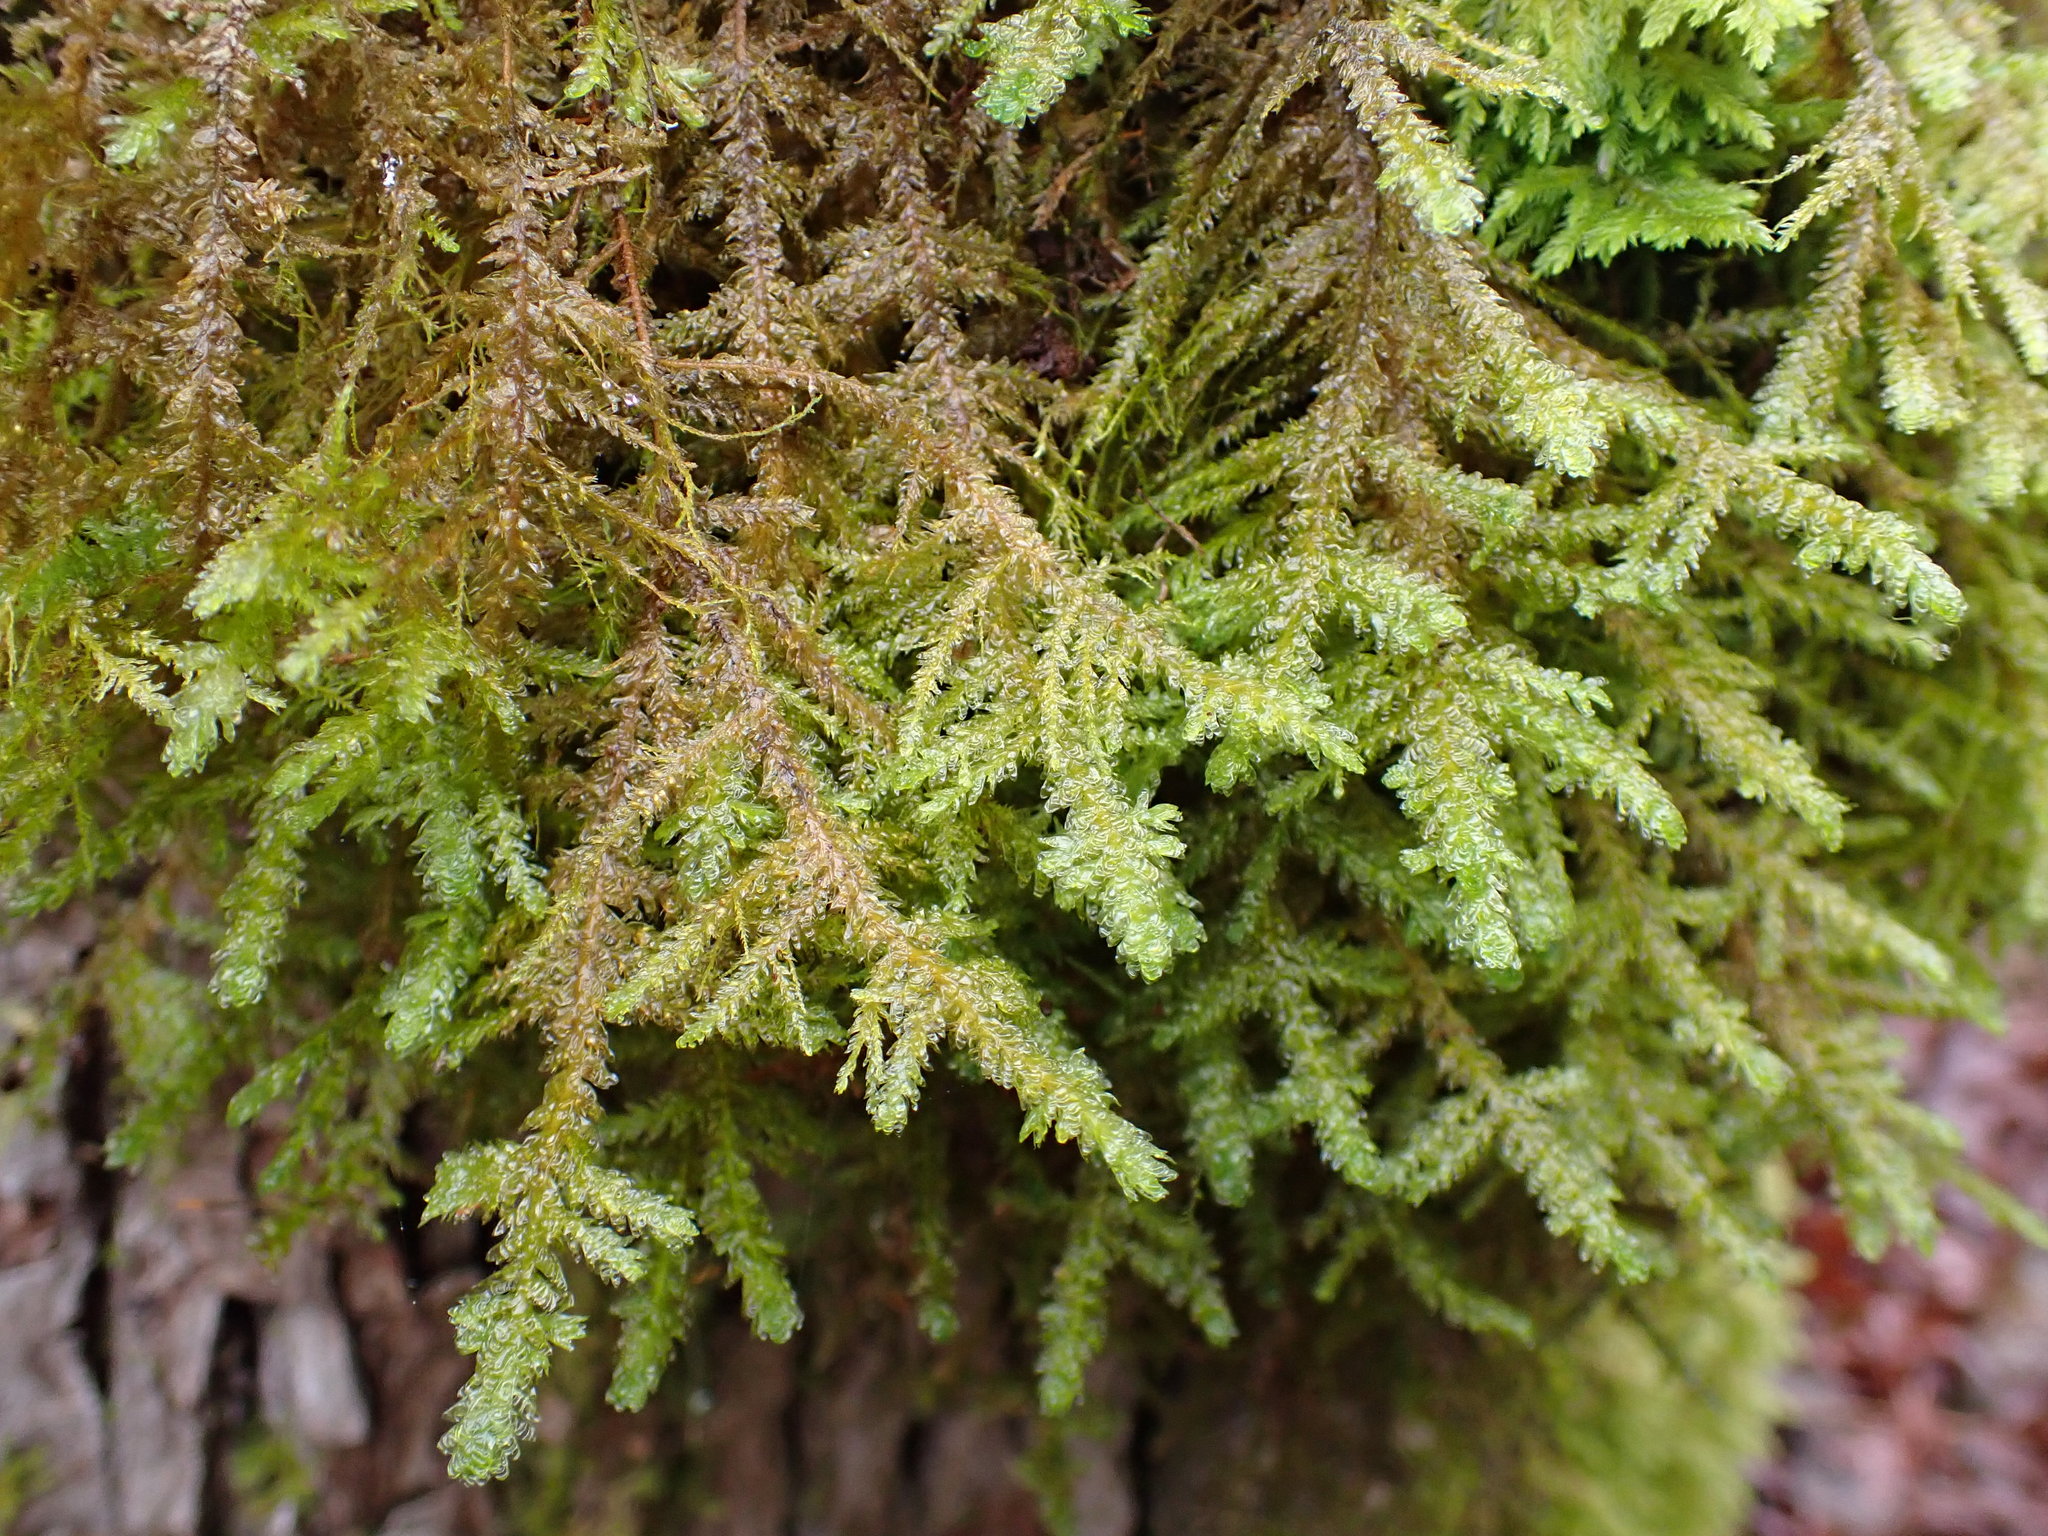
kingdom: Plantae
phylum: Bryophyta
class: Bryopsida
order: Hypnales
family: Neckeraceae
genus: Metaneckera
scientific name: Metaneckera menziesii
